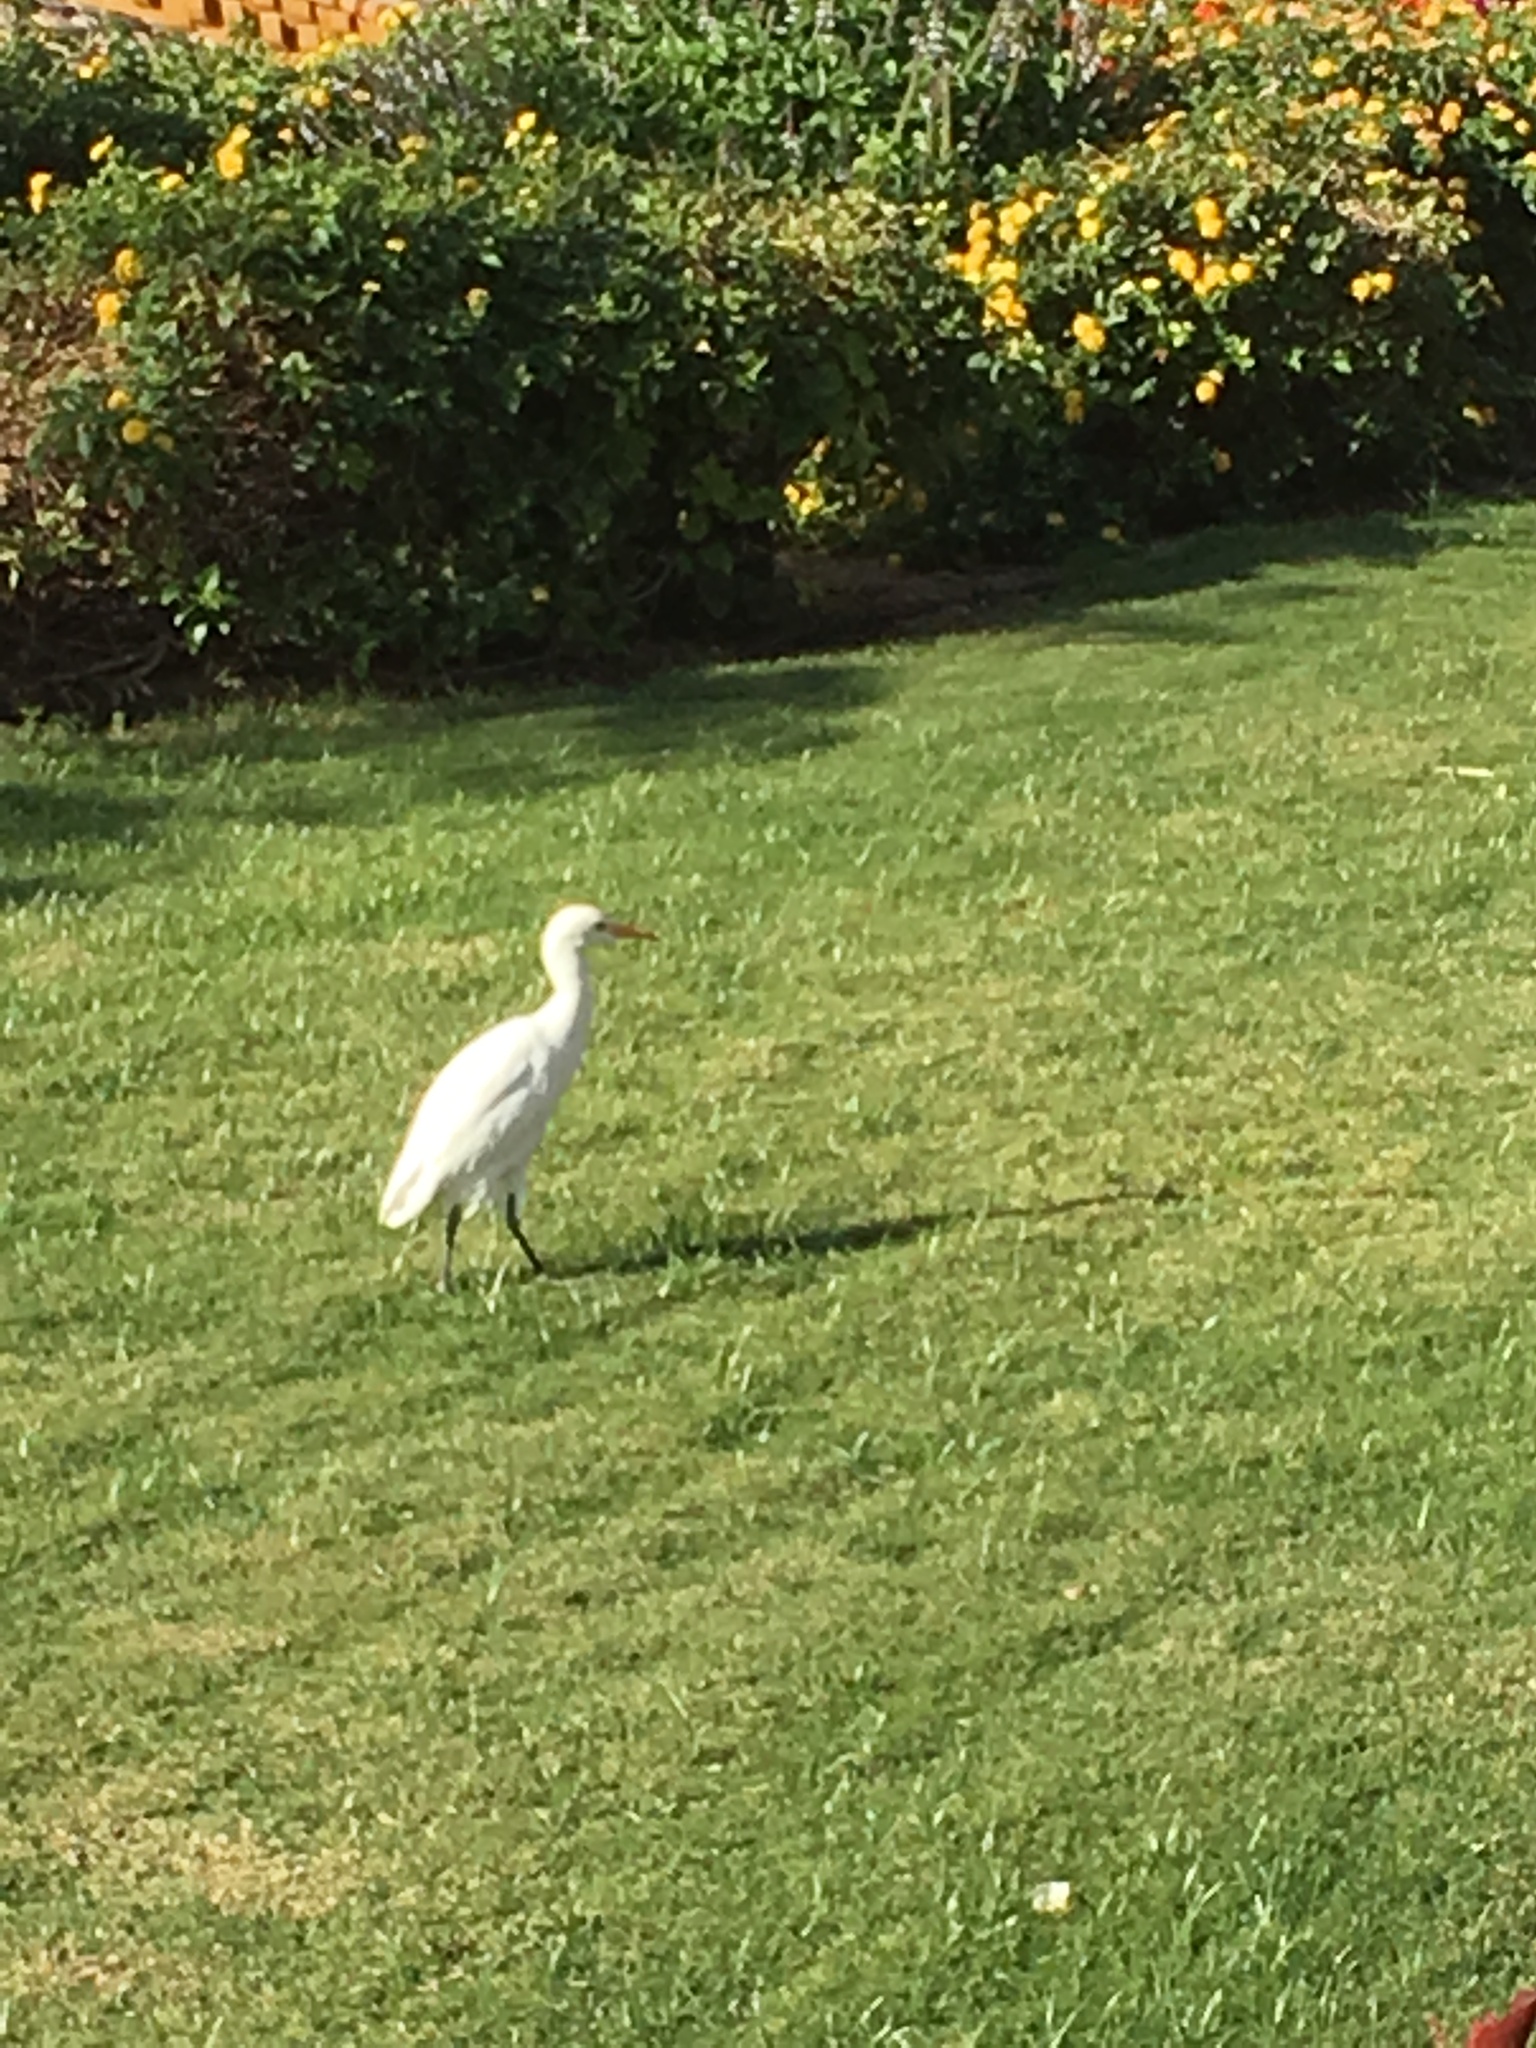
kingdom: Animalia
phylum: Chordata
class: Aves
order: Pelecaniformes
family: Ardeidae
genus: Bubulcus
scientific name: Bubulcus ibis
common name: Cattle egret
